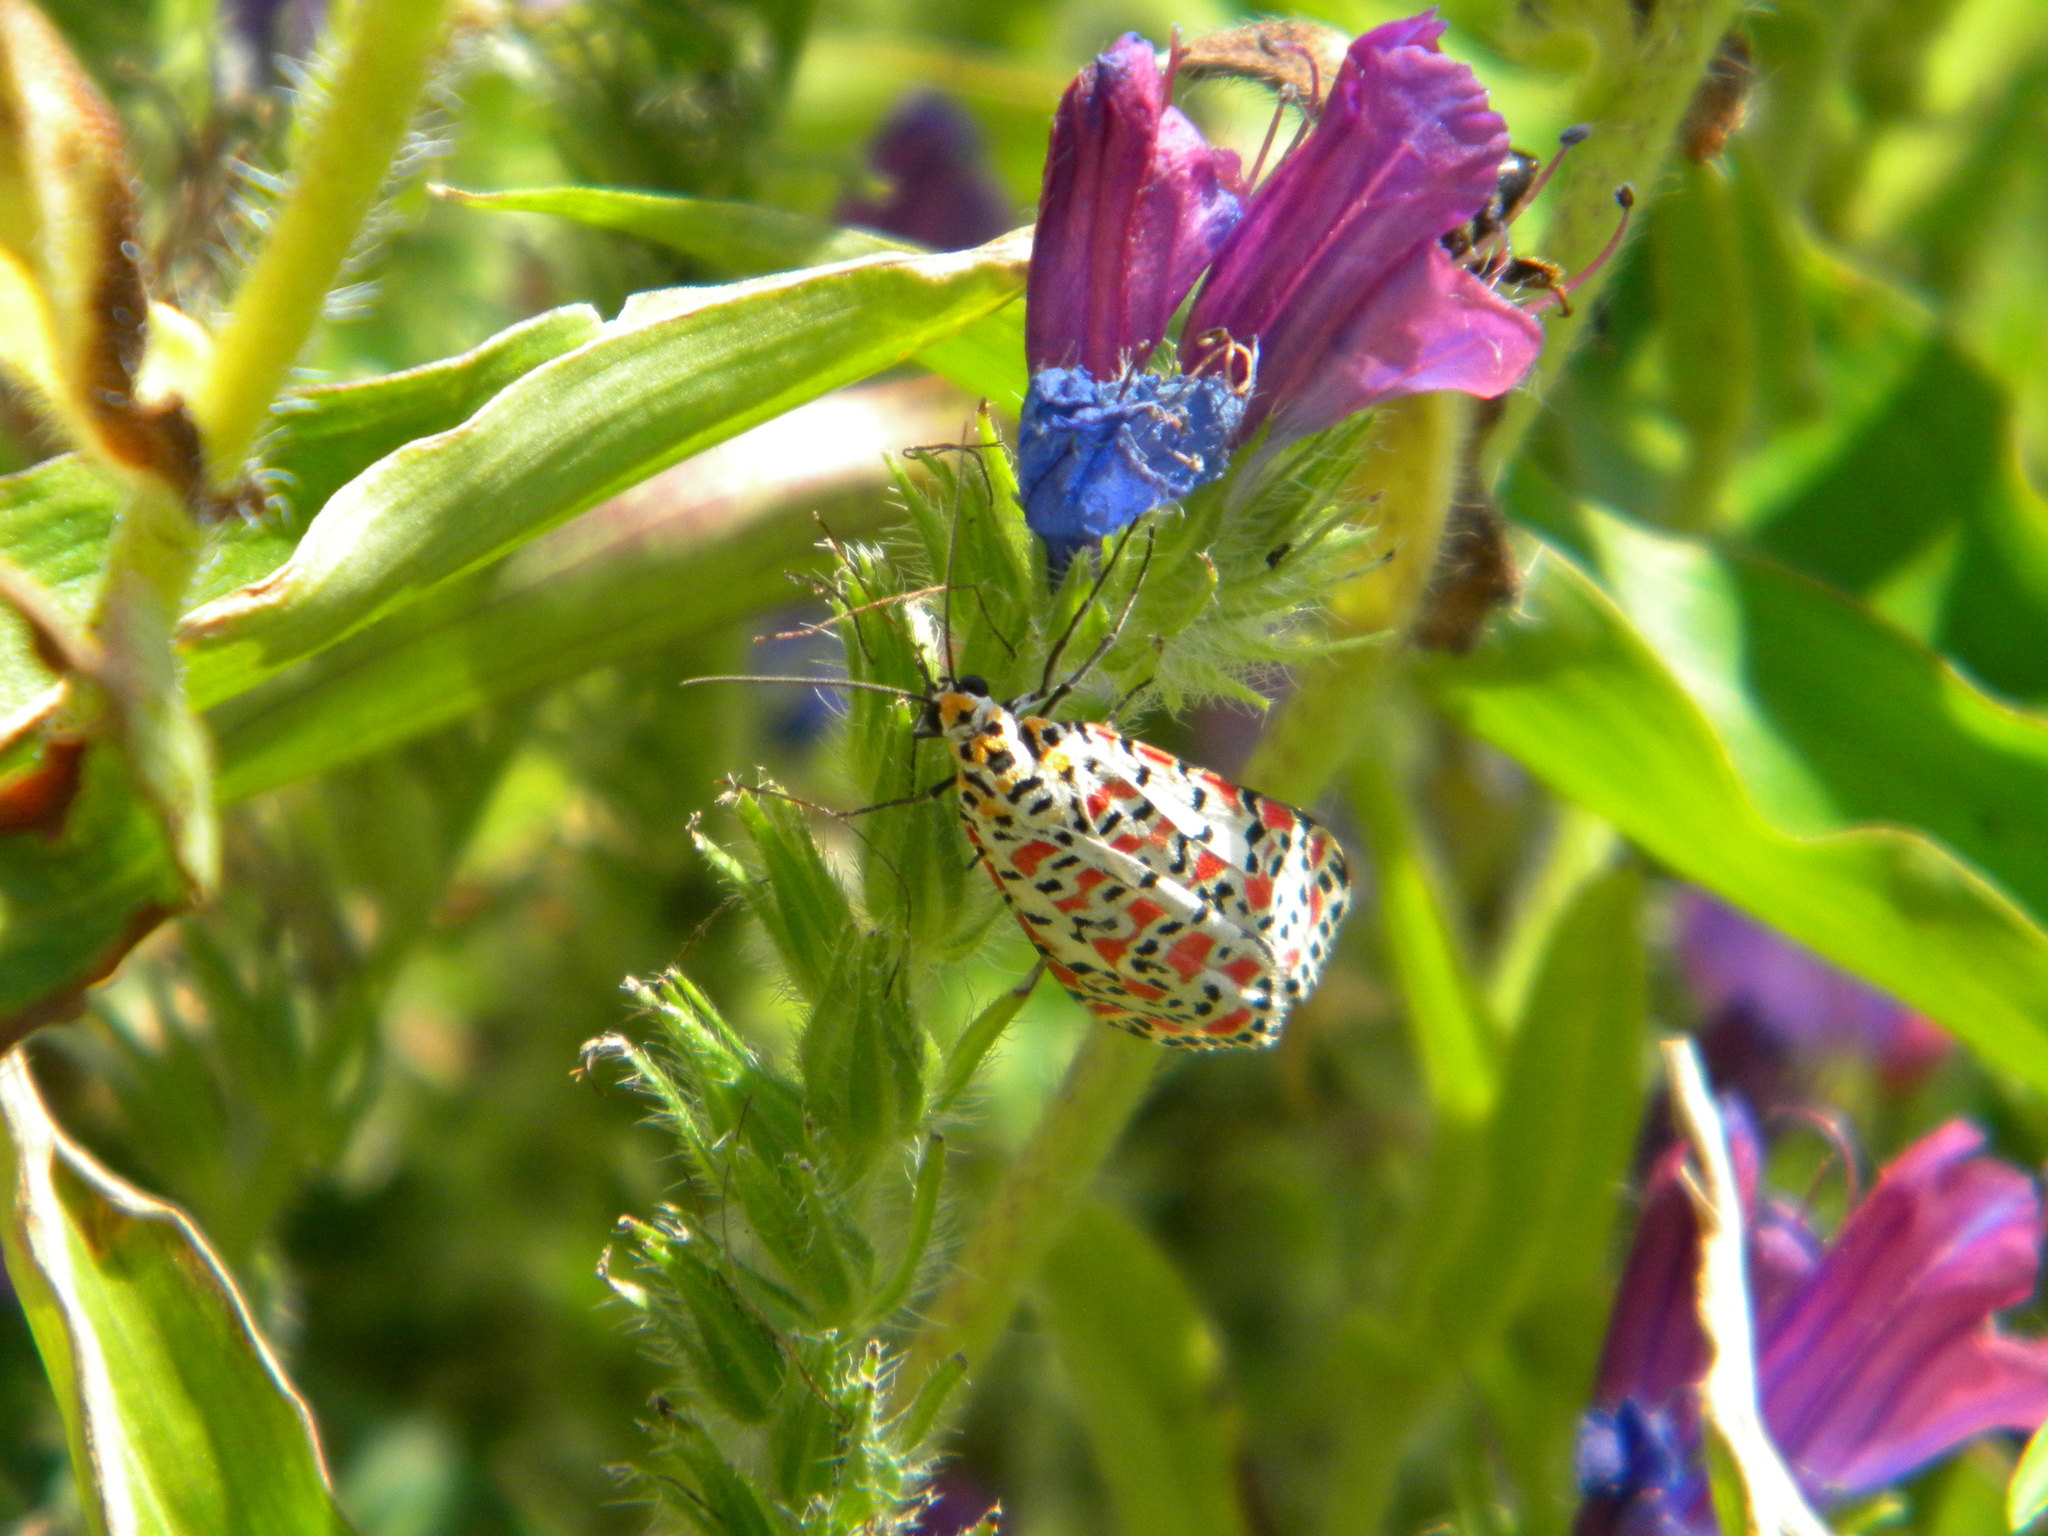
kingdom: Animalia
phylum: Arthropoda
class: Insecta
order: Lepidoptera
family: Erebidae
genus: Utetheisa
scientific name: Utetheisa pulchella
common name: Crimson speckled
